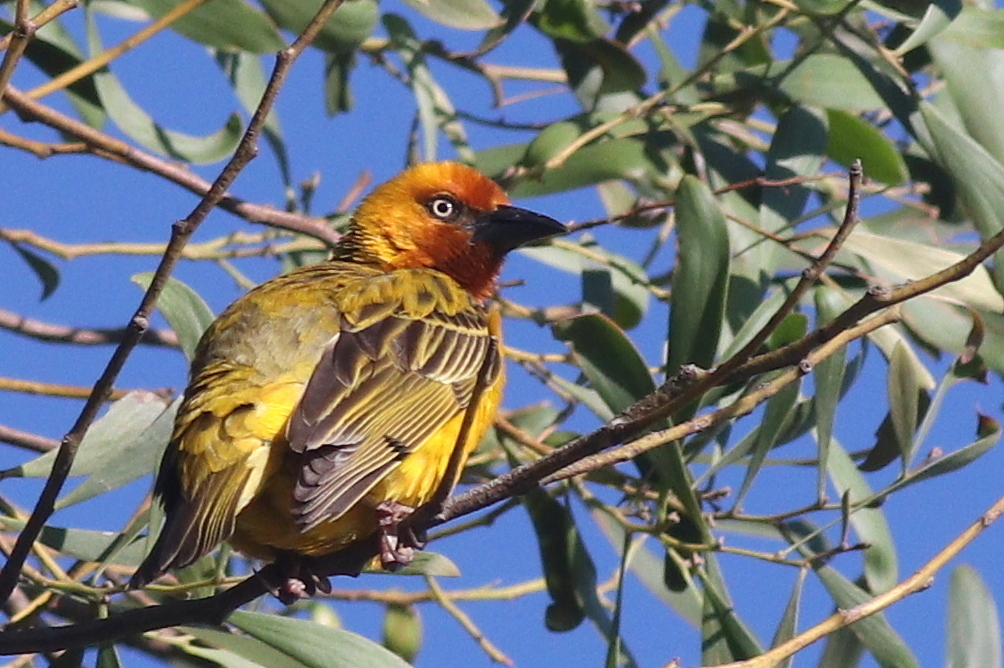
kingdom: Animalia
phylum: Chordata
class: Aves
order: Passeriformes
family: Ploceidae
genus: Ploceus
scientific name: Ploceus capensis
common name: Cape weaver
